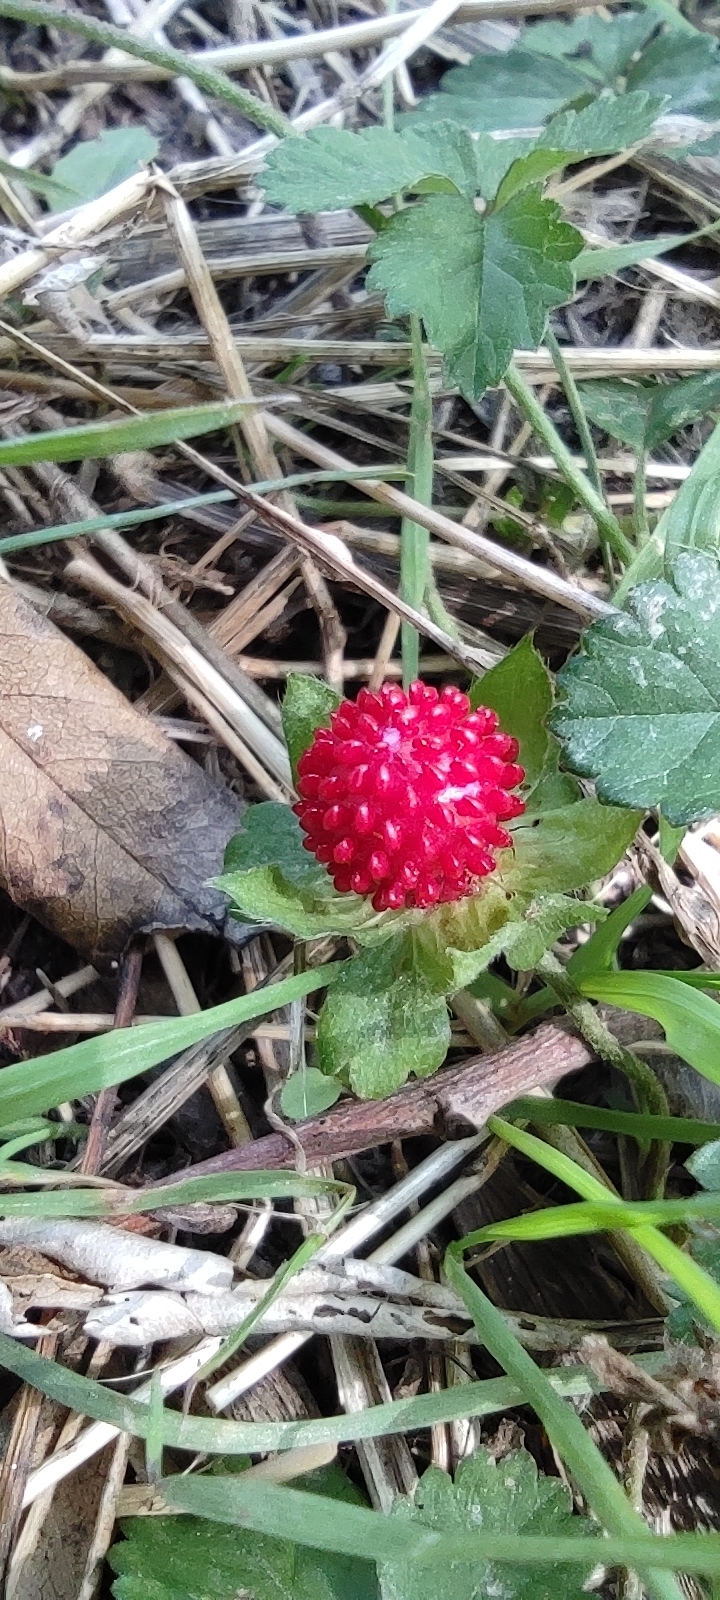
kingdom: Plantae
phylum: Tracheophyta
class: Magnoliopsida
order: Rosales
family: Rosaceae
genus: Potentilla
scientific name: Potentilla indica
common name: Yellow-flowered strawberry
